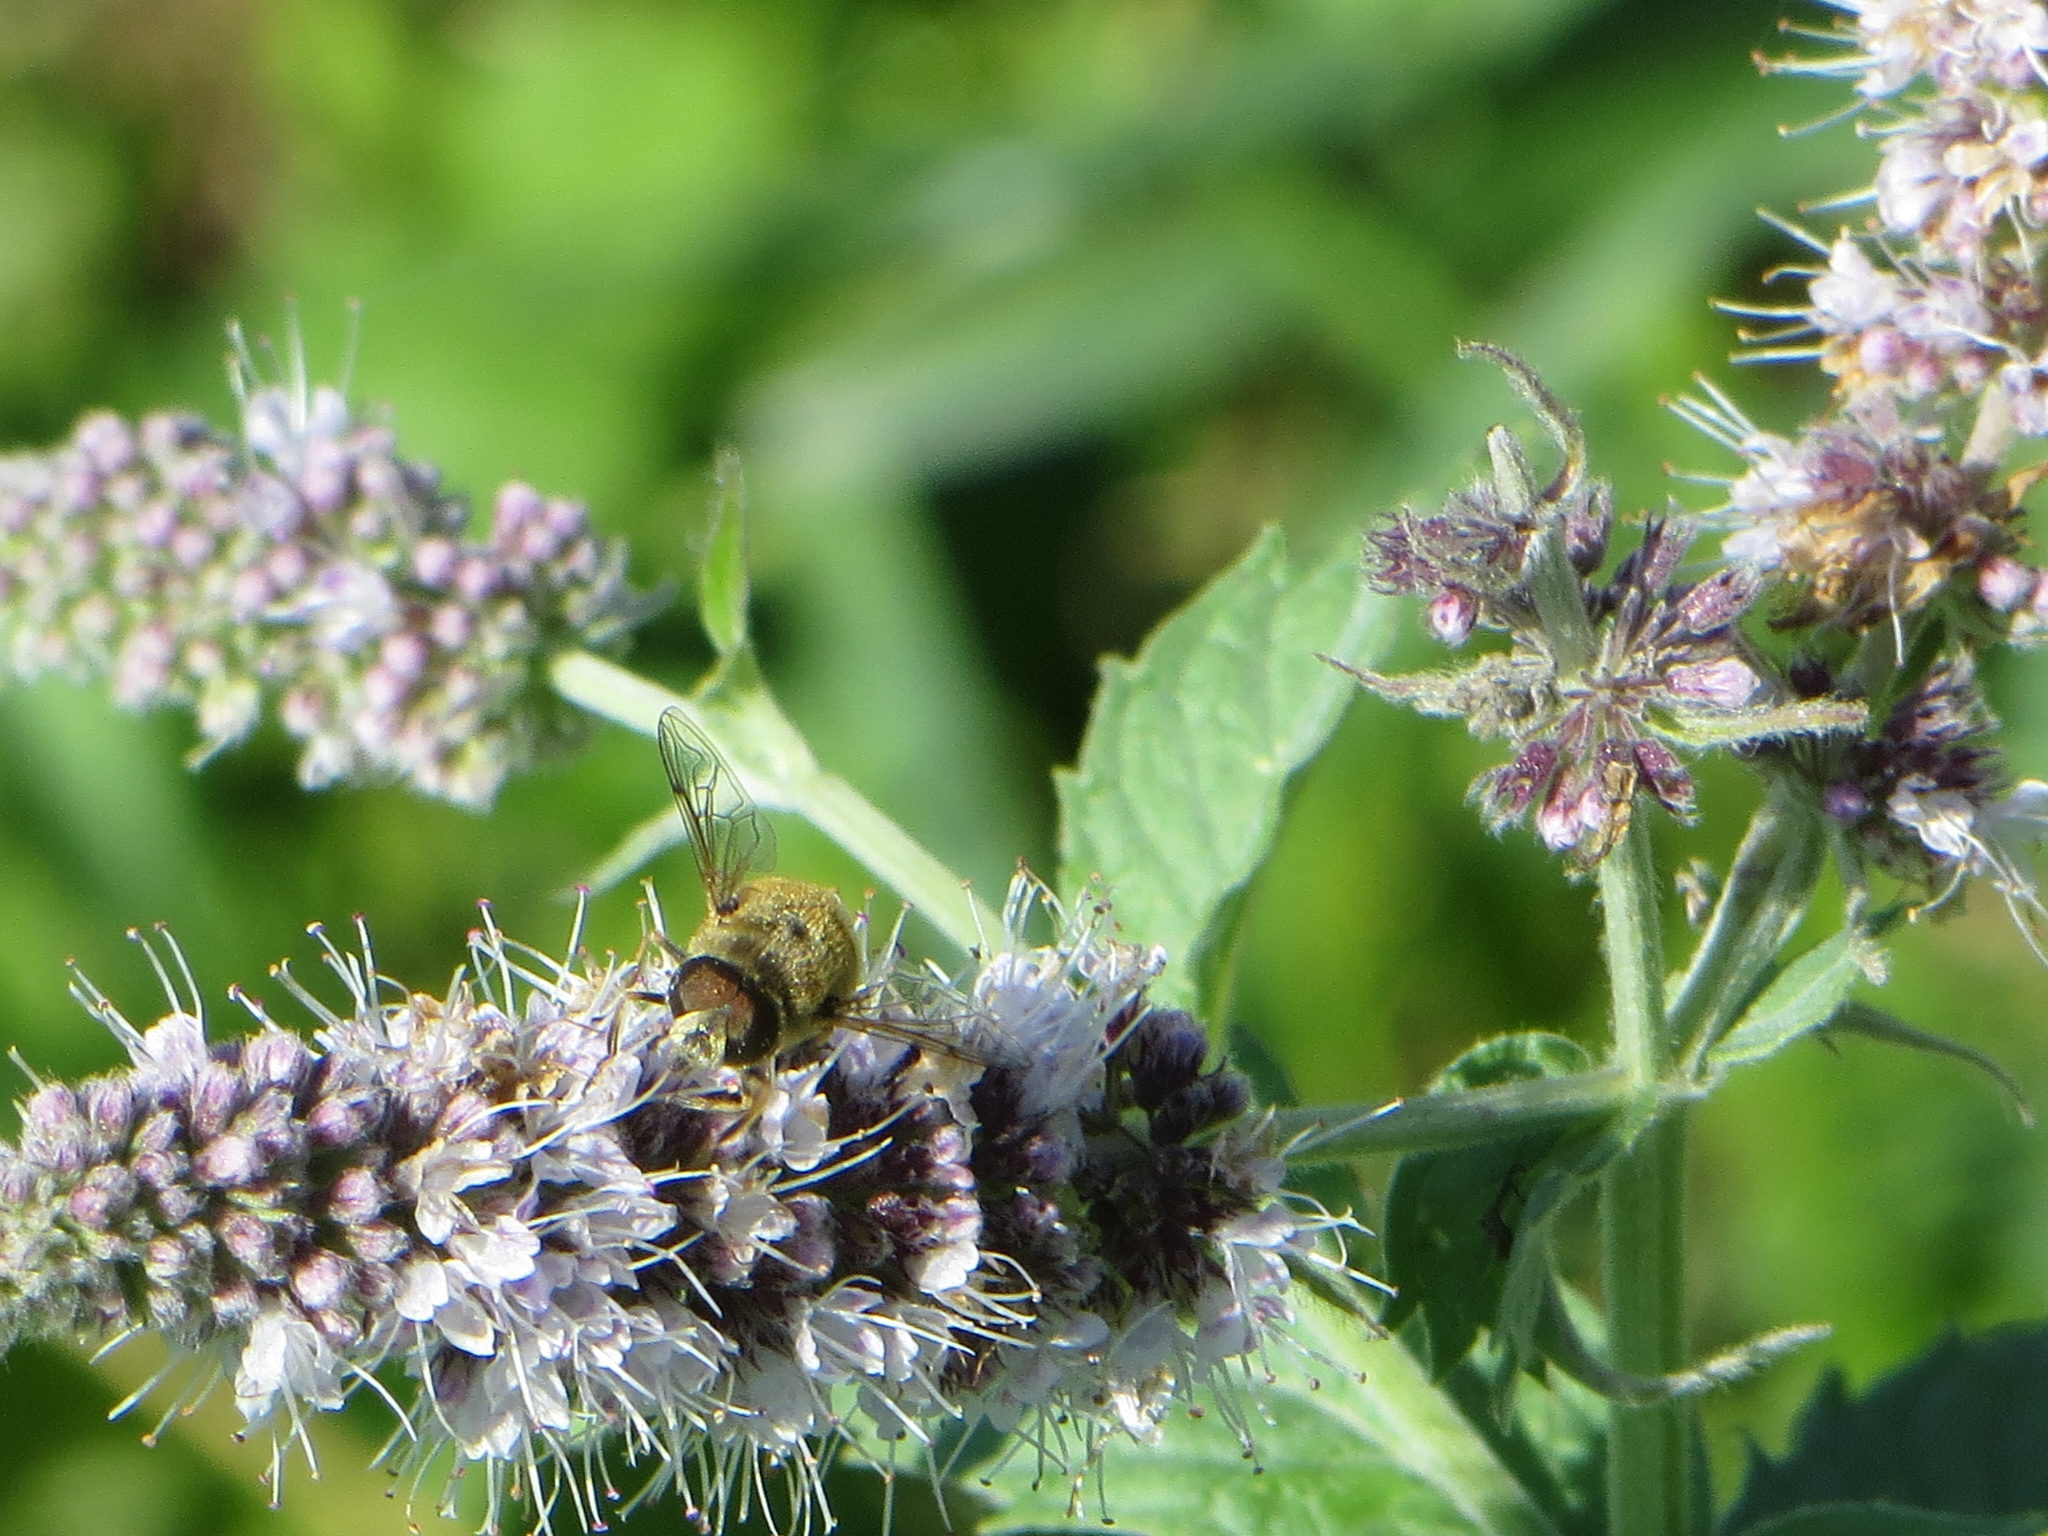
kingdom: Animalia
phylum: Arthropoda
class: Insecta
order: Diptera
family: Syrphidae
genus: Eristalis
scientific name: Eristalis arbustorum
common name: Hover fly
